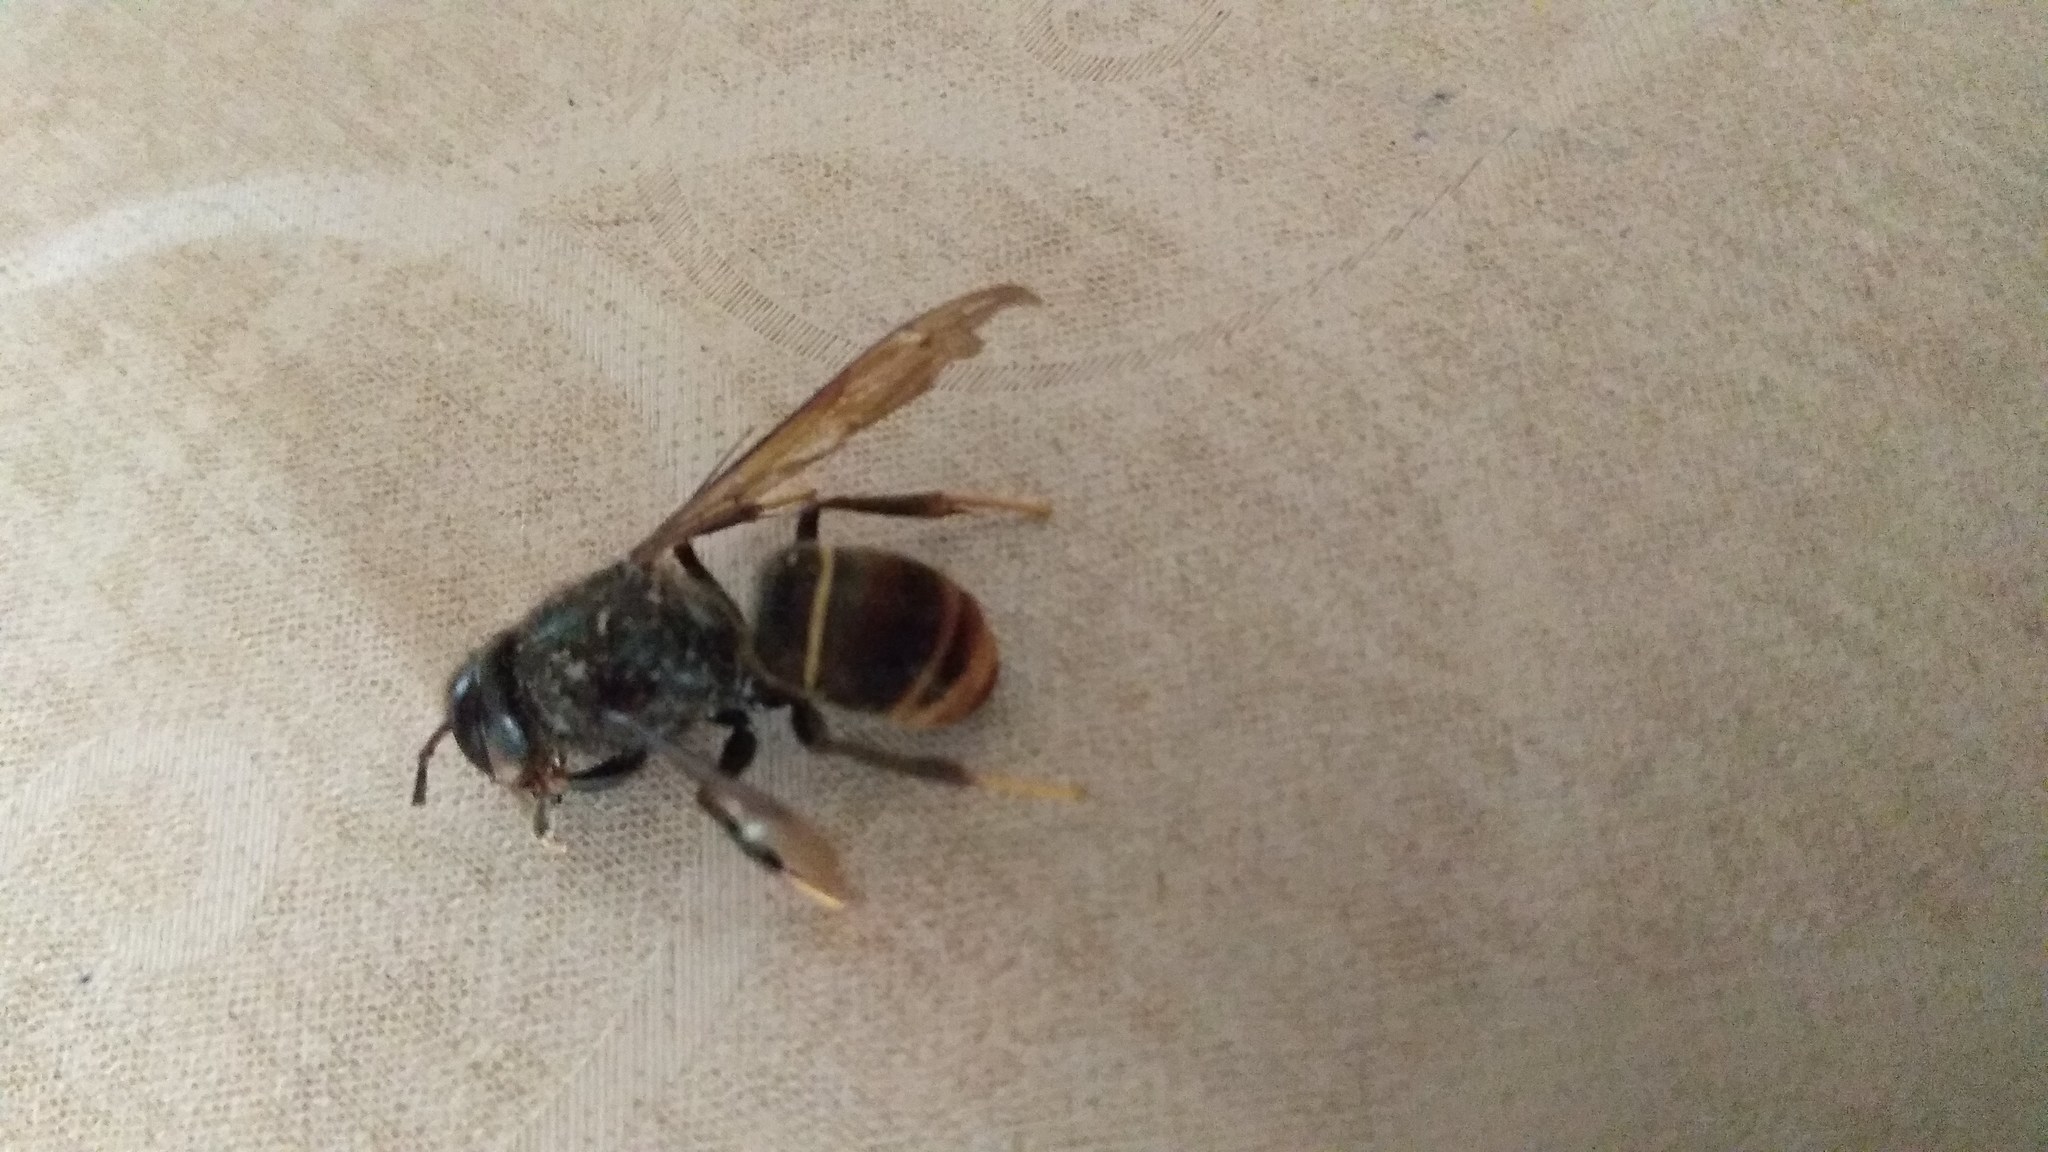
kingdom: Animalia
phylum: Arthropoda
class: Insecta
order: Hymenoptera
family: Vespidae
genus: Vespa
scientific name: Vespa velutina
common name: Asian hornet
